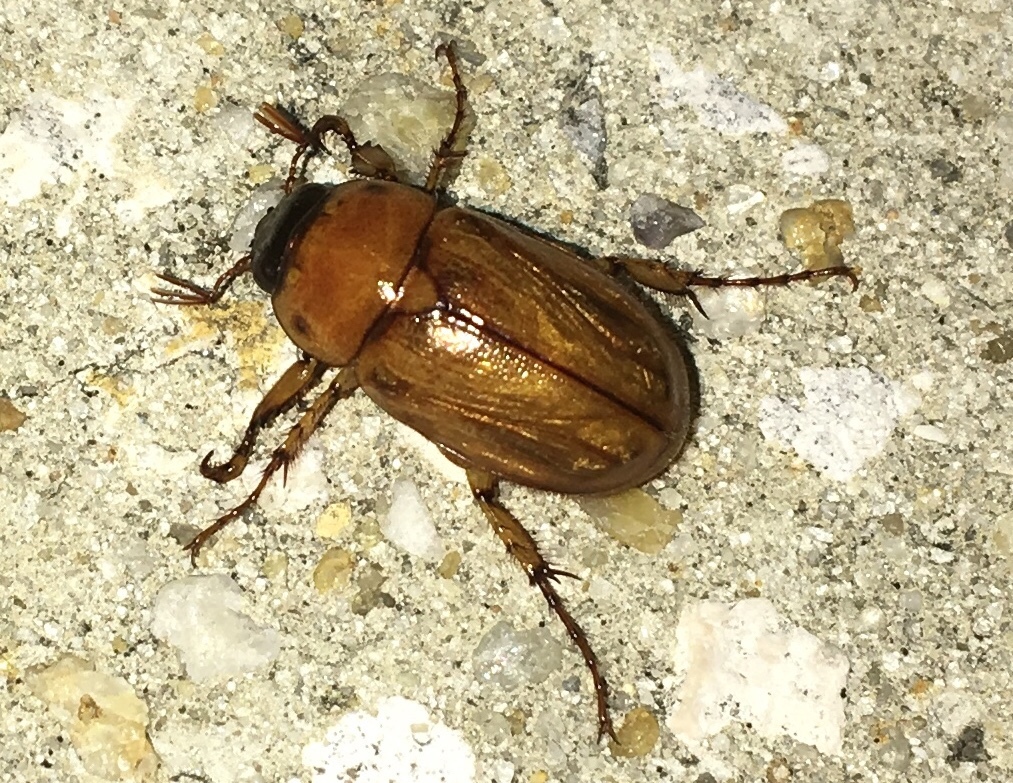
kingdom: Animalia
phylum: Arthropoda
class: Insecta
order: Coleoptera
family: Scarabaeidae
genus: Cyclocephala
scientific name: Cyclocephala lurida
